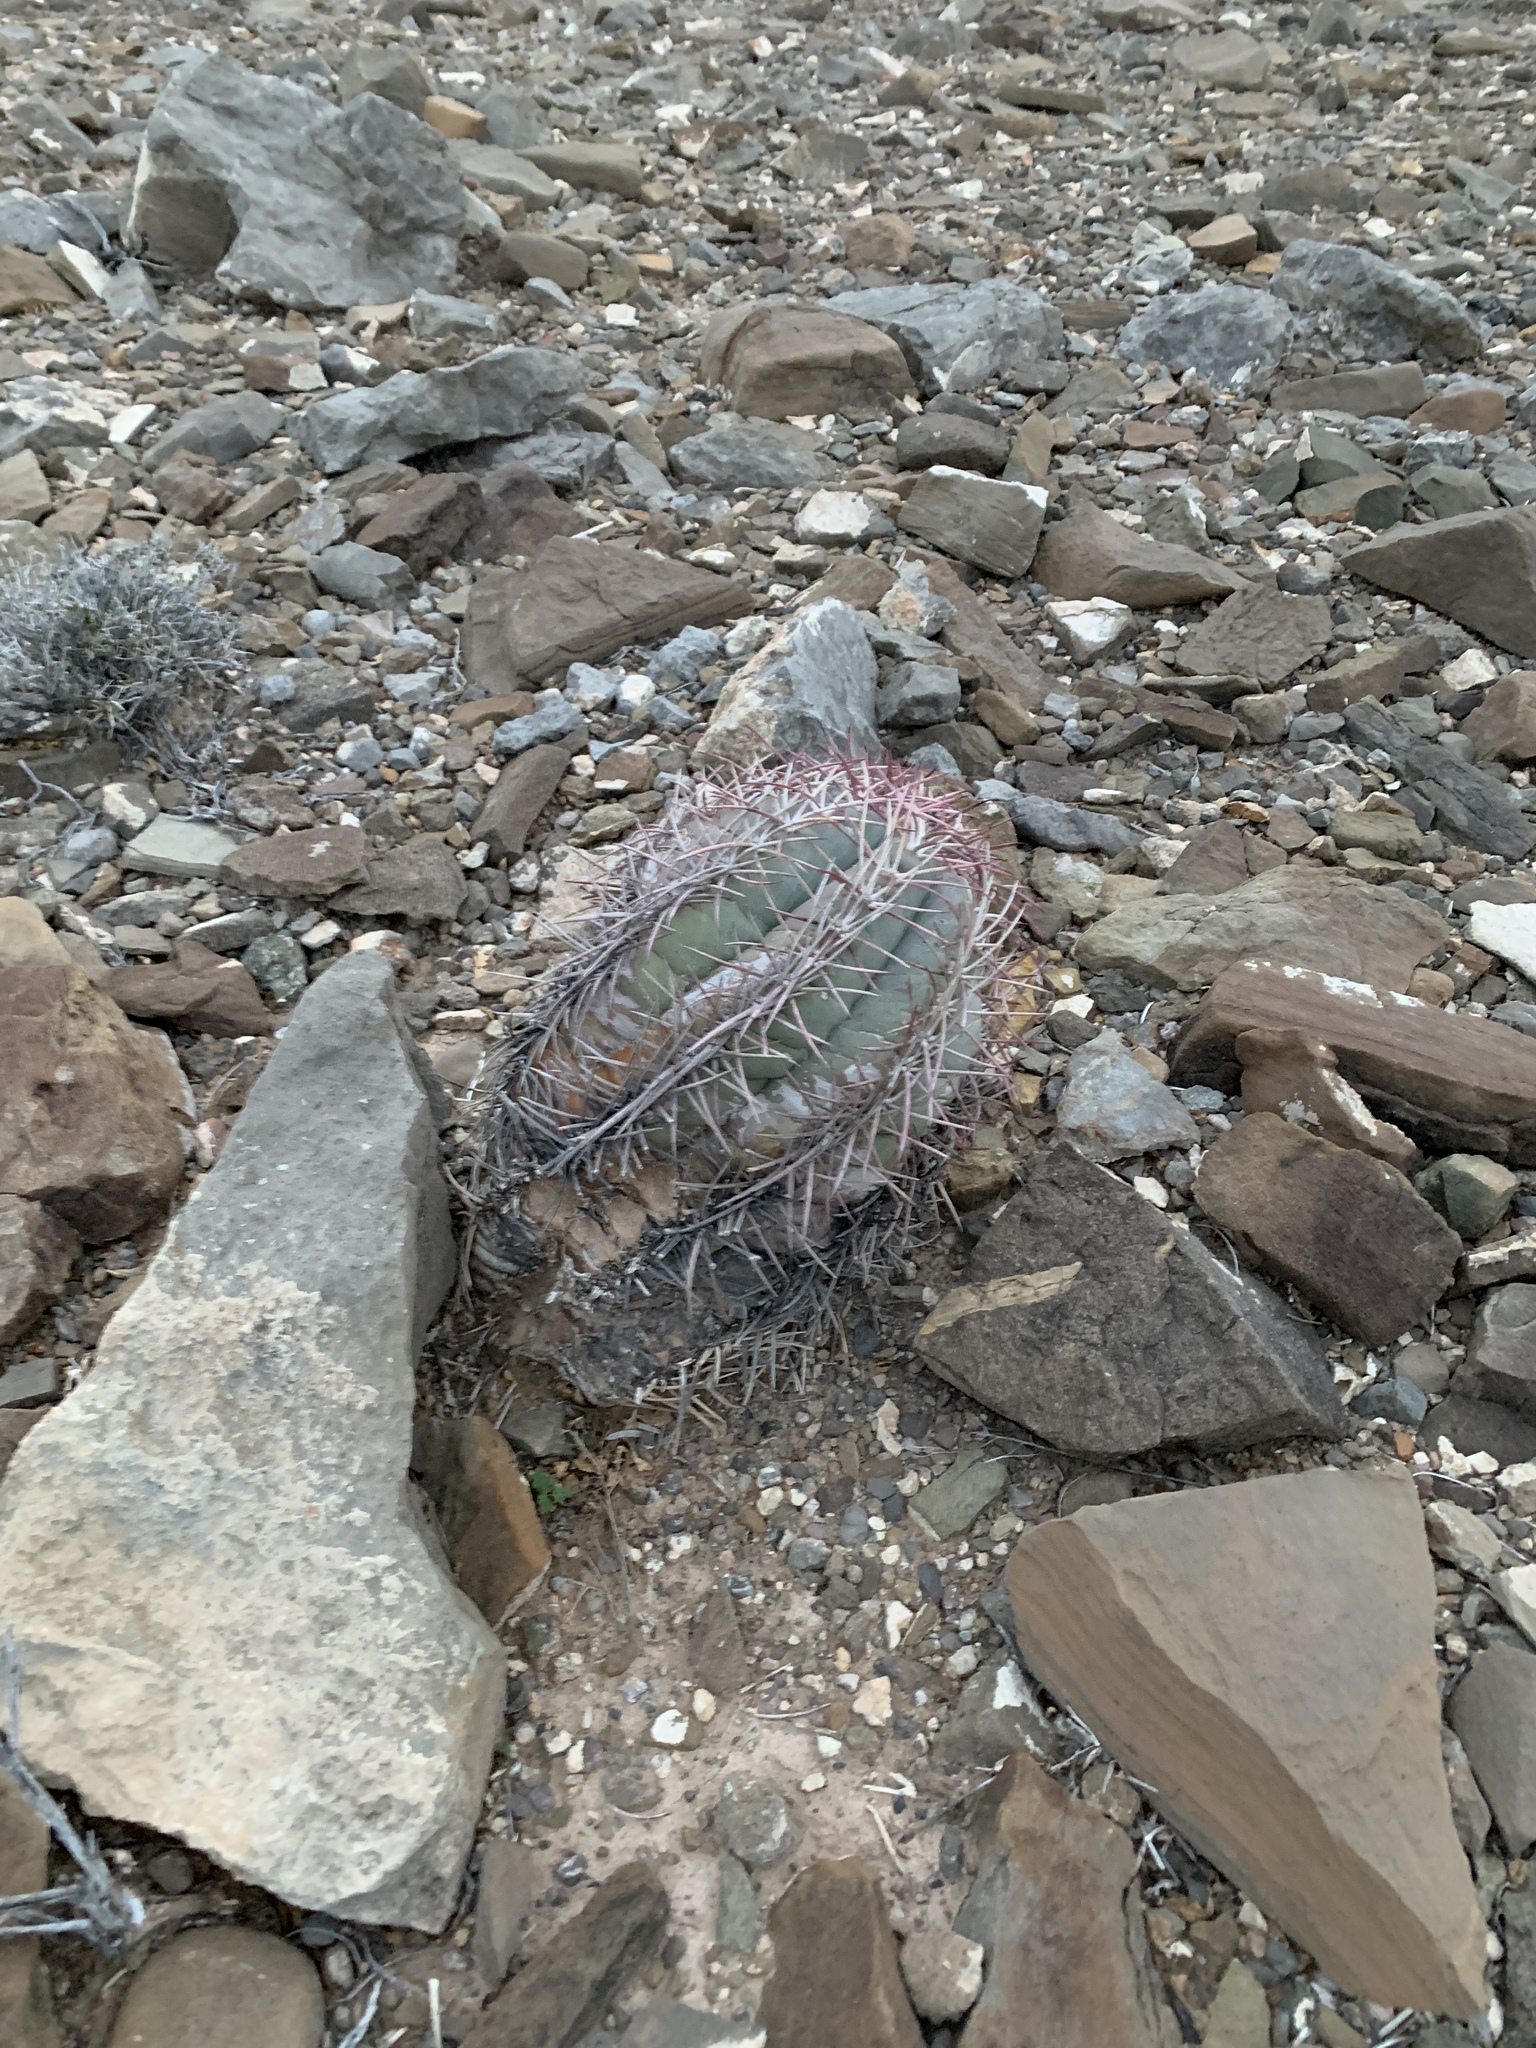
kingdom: Plantae
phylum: Tracheophyta
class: Magnoliopsida
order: Caryophyllales
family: Cactaceae
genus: Echinocactus
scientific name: Echinocactus horizonthalonius
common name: Devilshead
